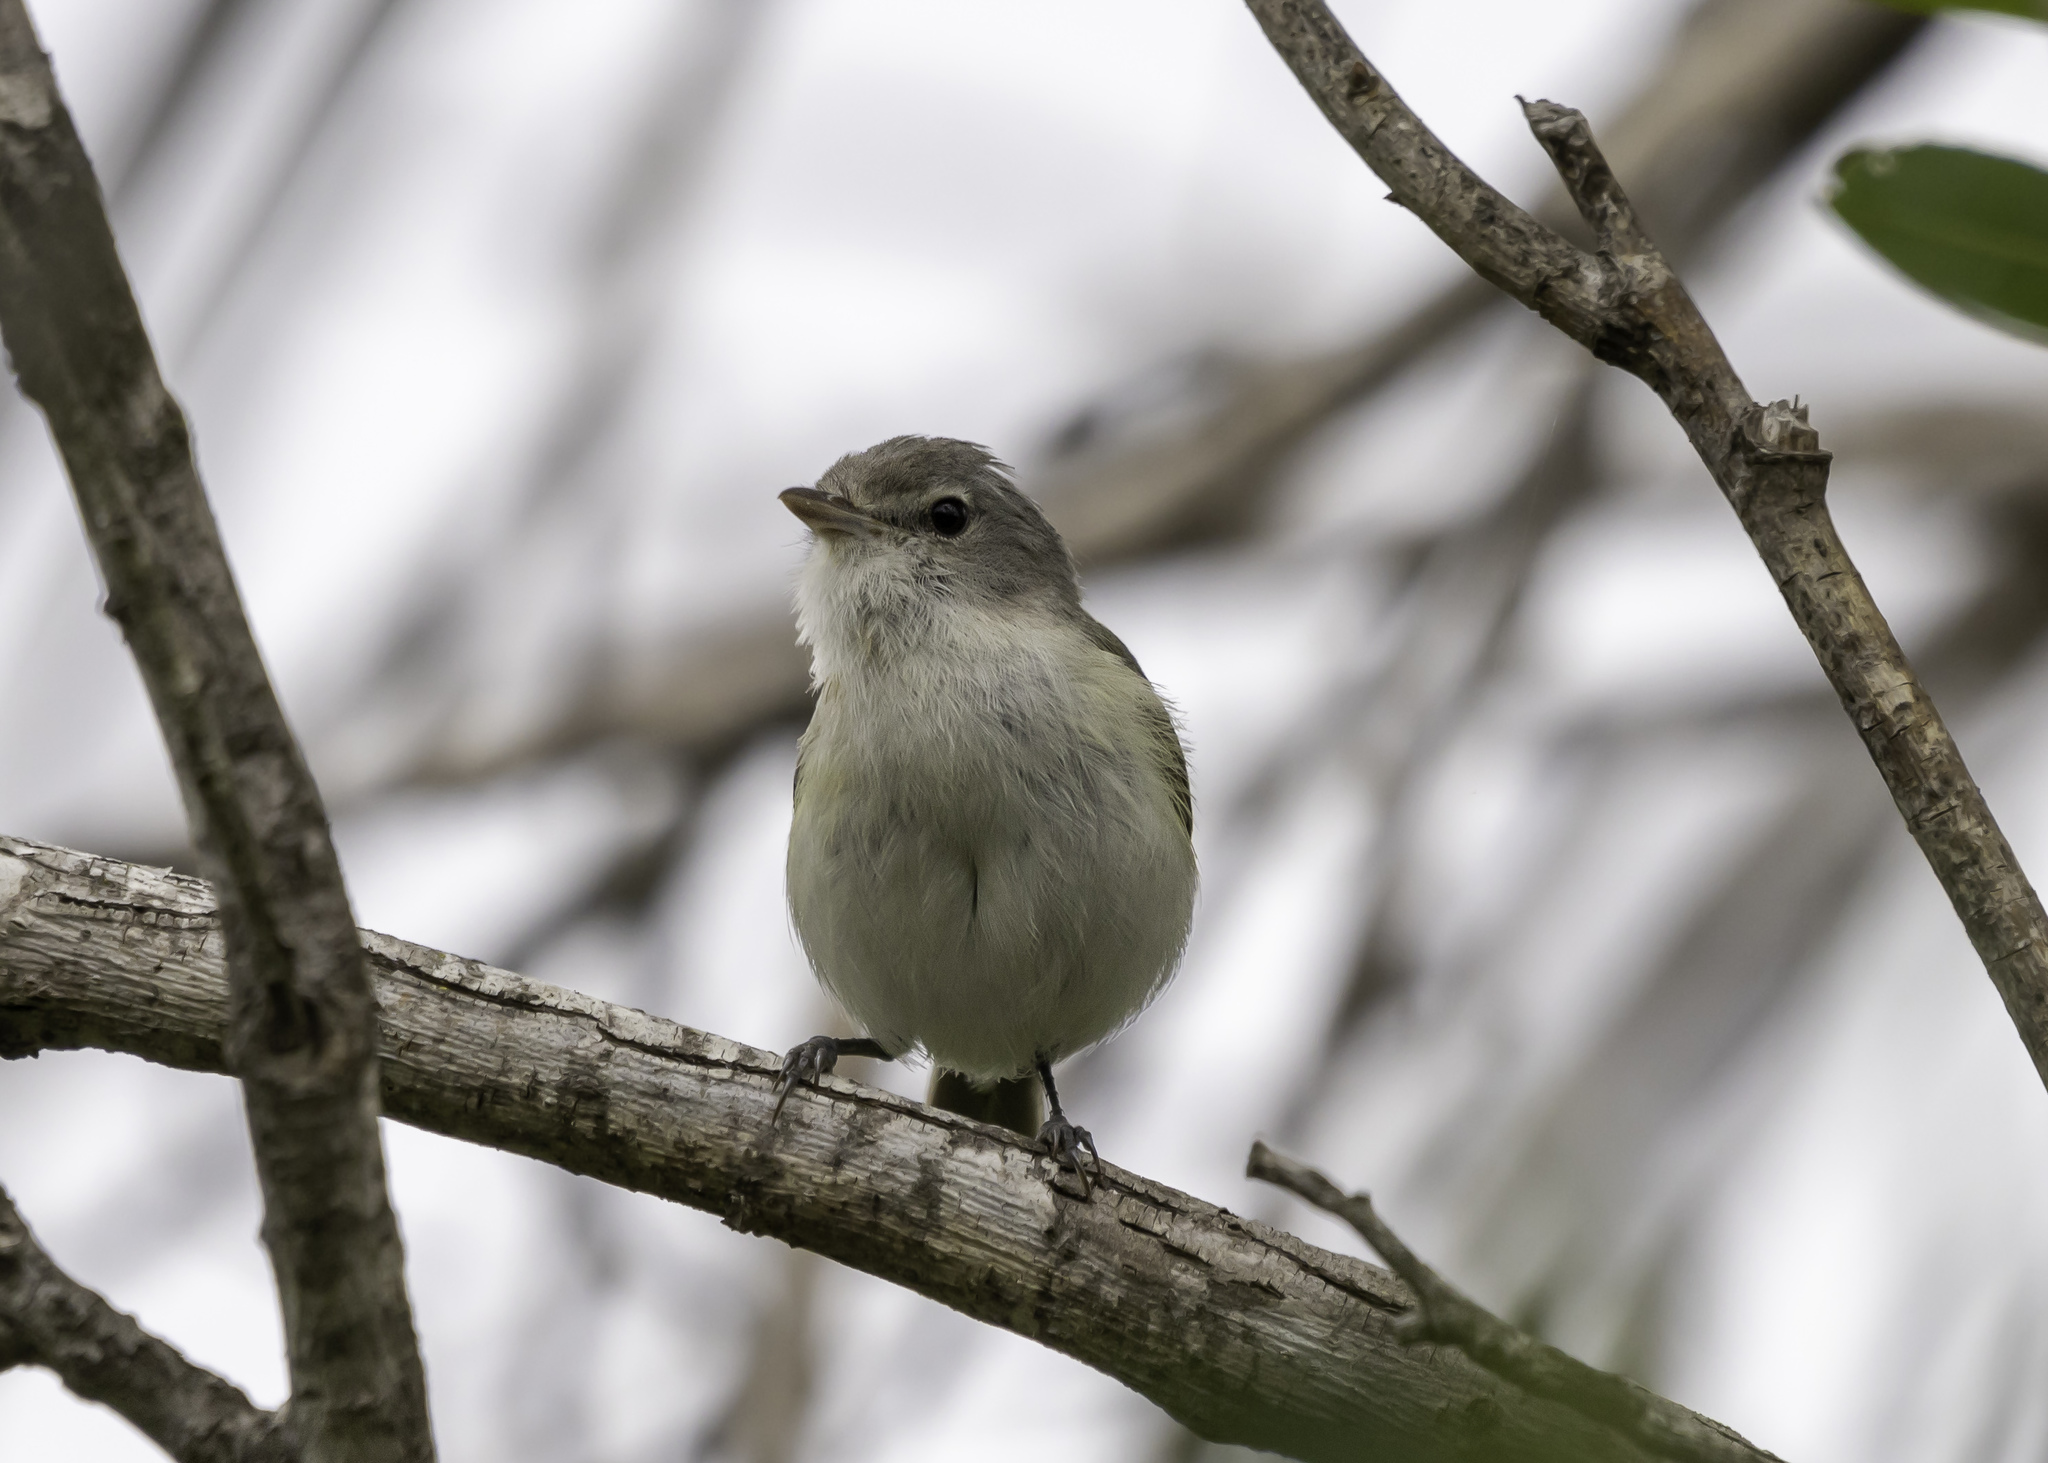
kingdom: Animalia
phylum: Chordata
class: Aves
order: Passeriformes
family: Vireonidae
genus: Vireo
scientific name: Vireo bellii
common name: Bell's vireo
